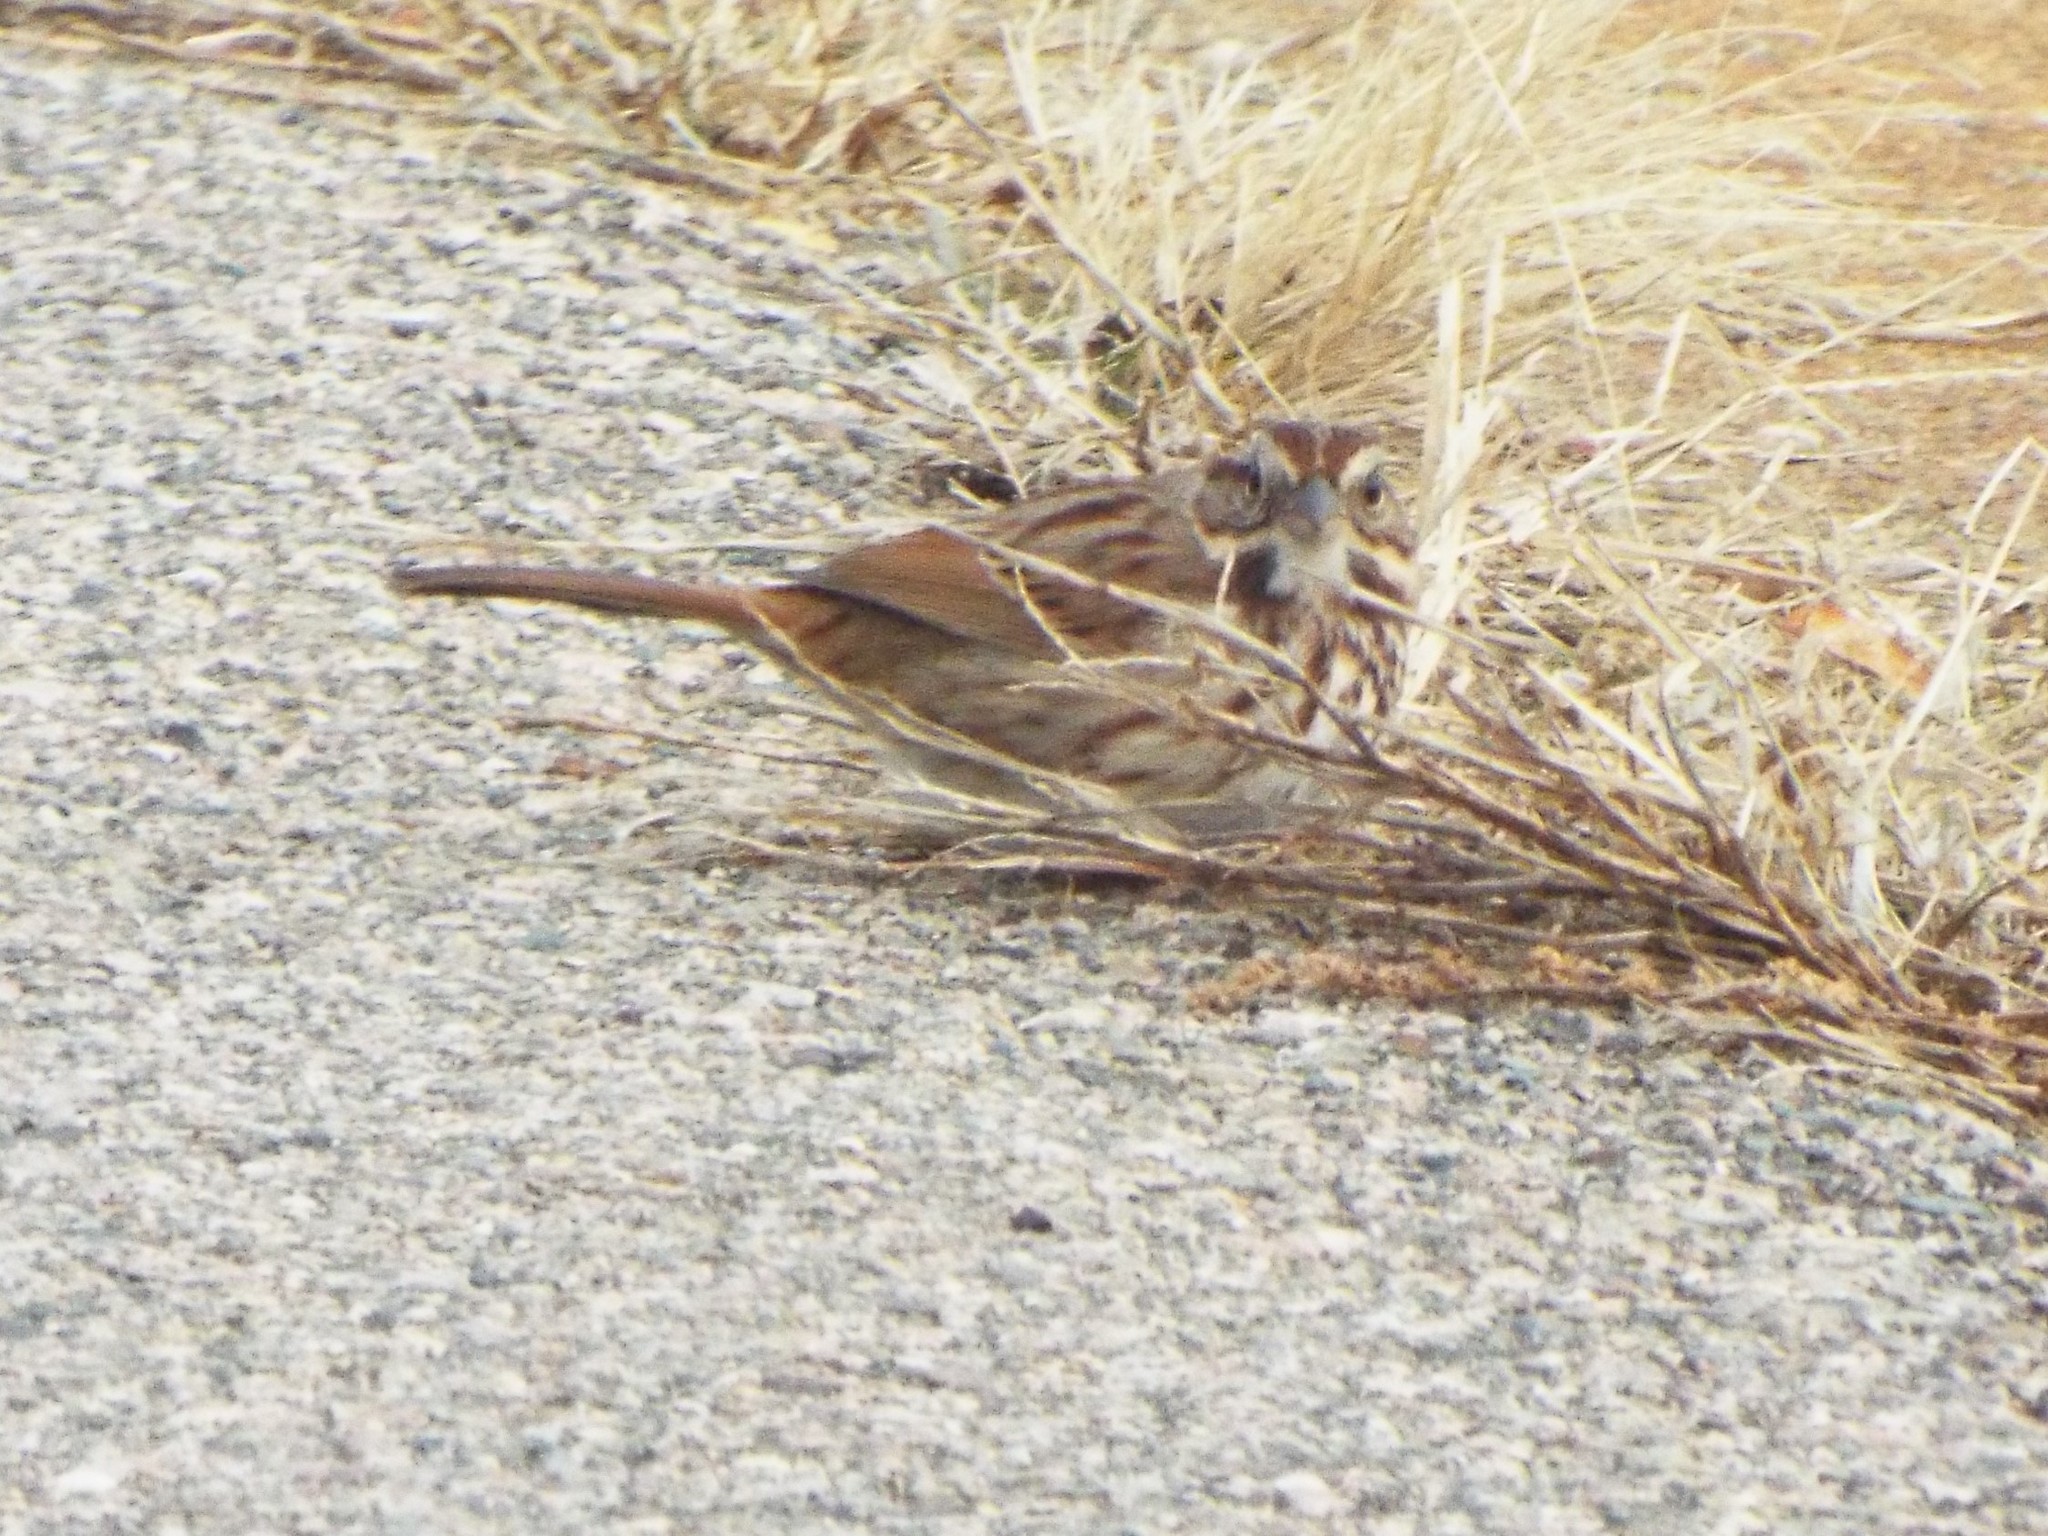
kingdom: Animalia
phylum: Chordata
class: Aves
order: Passeriformes
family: Passerellidae
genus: Melospiza
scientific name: Melospiza melodia
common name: Song sparrow
